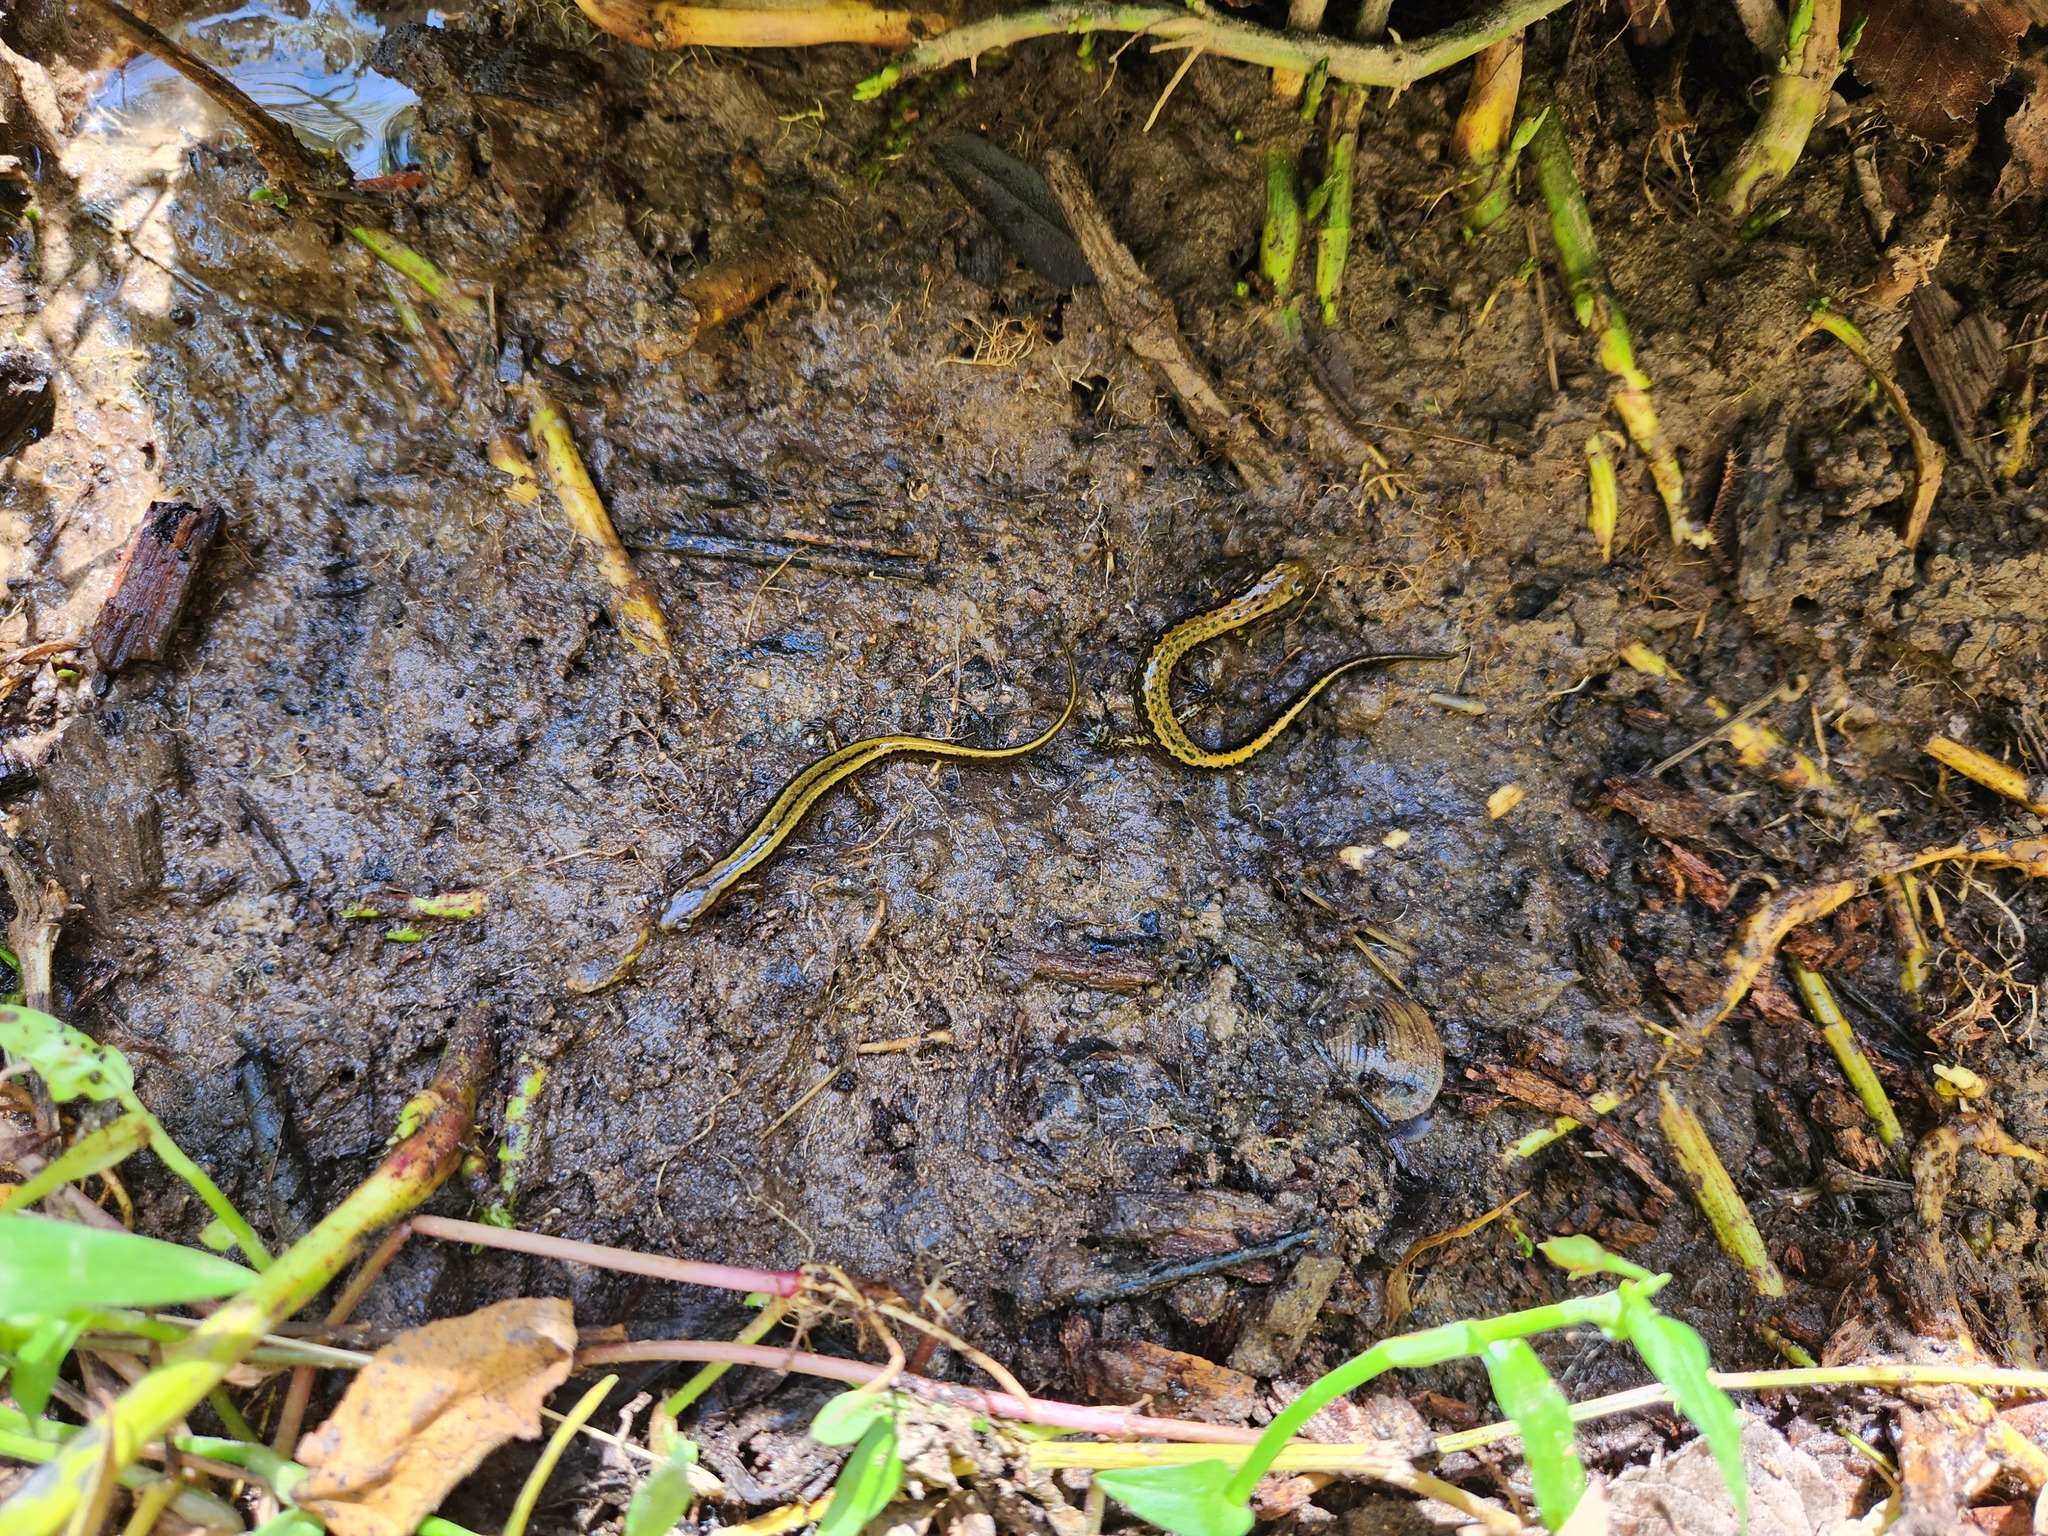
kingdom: Animalia
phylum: Chordata
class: Amphibia
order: Caudata
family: Plethodontidae
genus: Eurycea
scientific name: Eurycea longicauda
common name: Long-tailed salamander
